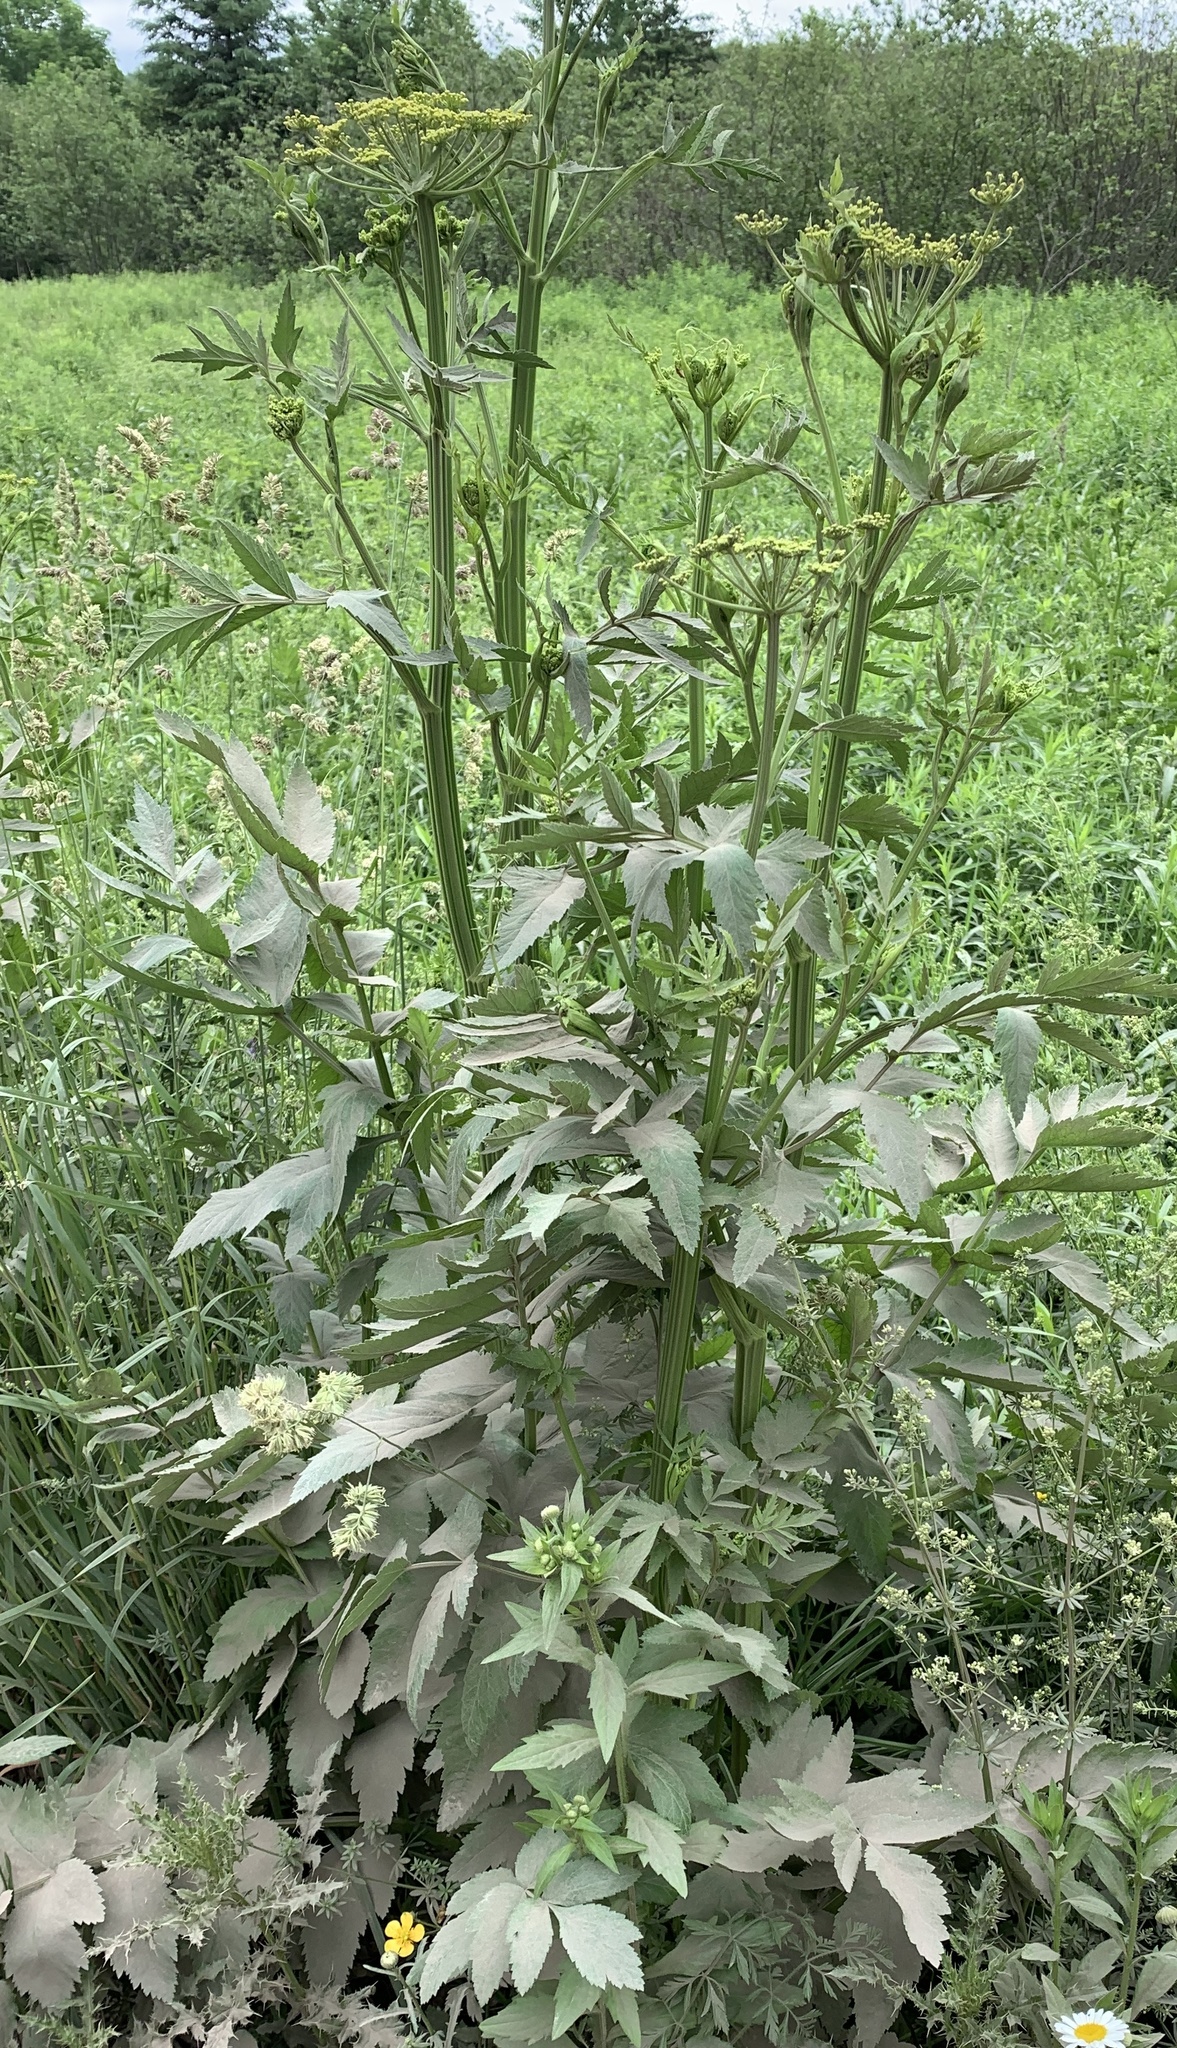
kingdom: Plantae
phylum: Tracheophyta
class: Magnoliopsida
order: Apiales
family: Apiaceae
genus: Pastinaca
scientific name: Pastinaca sativa
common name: Wild parsnip
